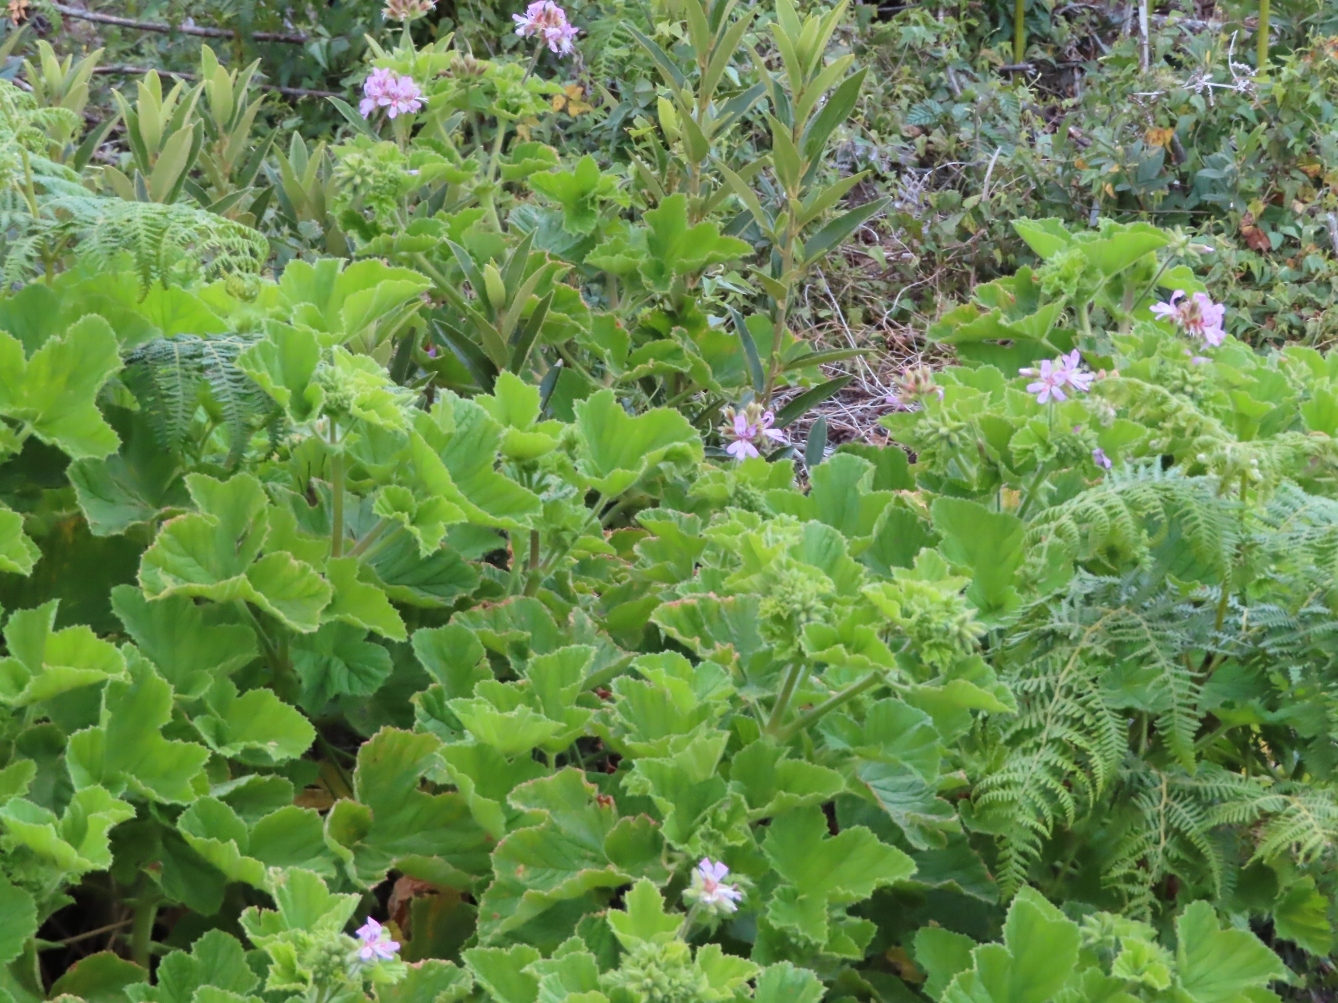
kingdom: Plantae
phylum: Tracheophyta
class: Magnoliopsida
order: Geraniales
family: Geraniaceae
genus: Pelargonium
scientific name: Pelargonium capitatum
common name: Rose scented geranium
